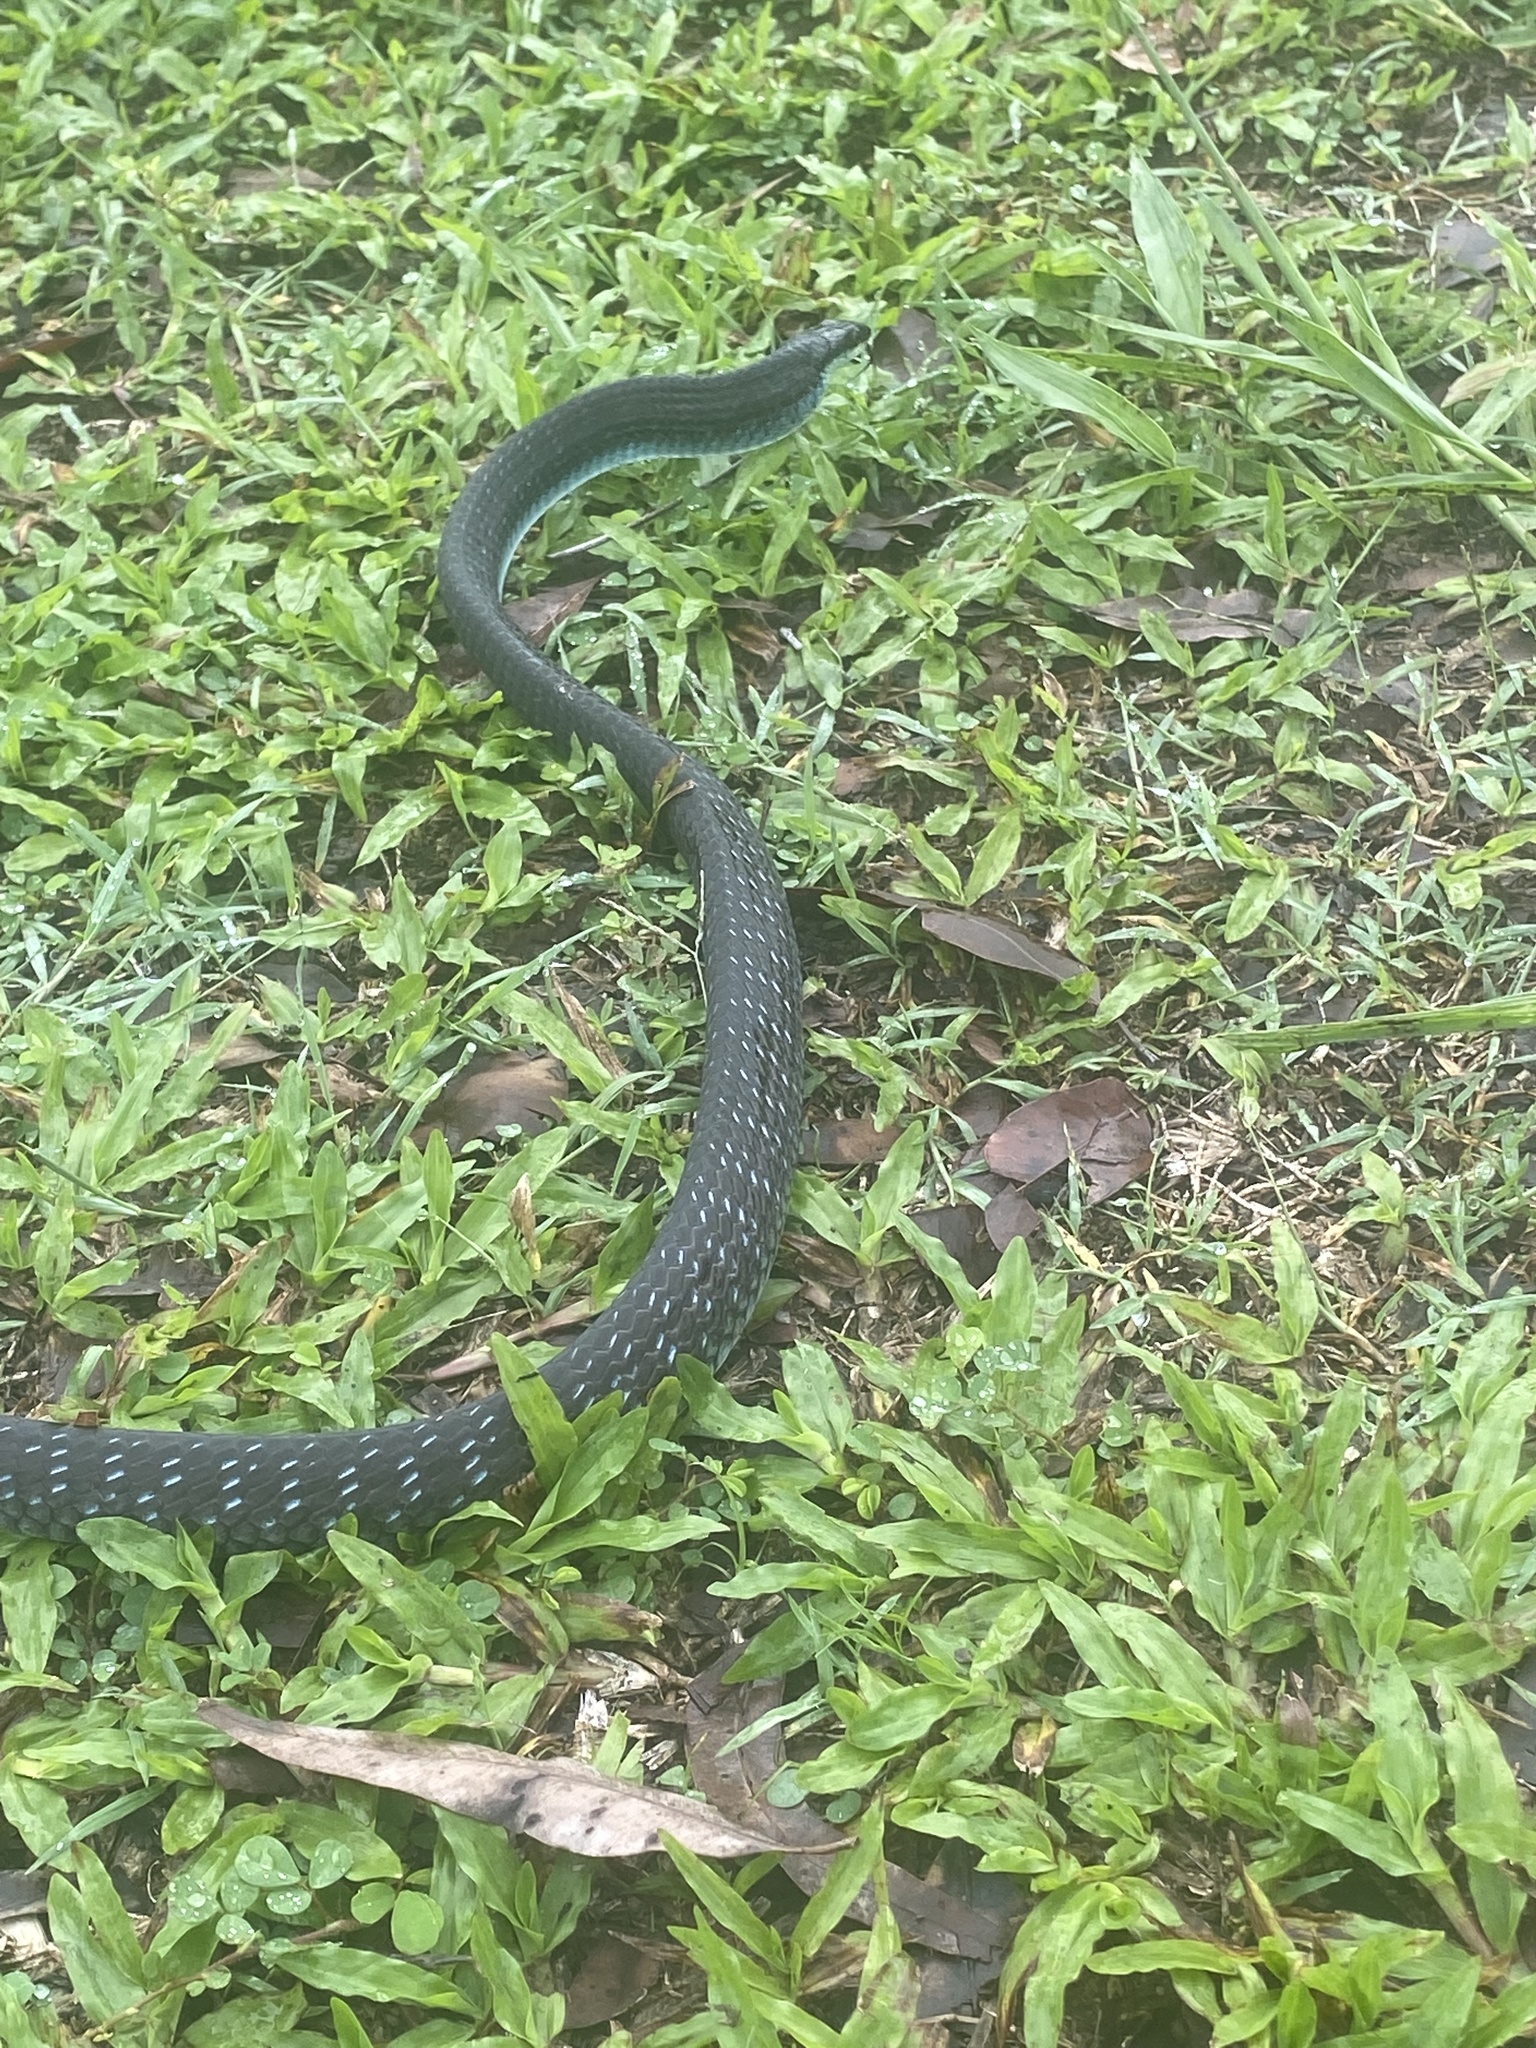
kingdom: Animalia
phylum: Chordata
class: Squamata
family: Colubridae
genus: Dendrelaphis
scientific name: Dendrelaphis punctulatus
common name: Common tree snake
